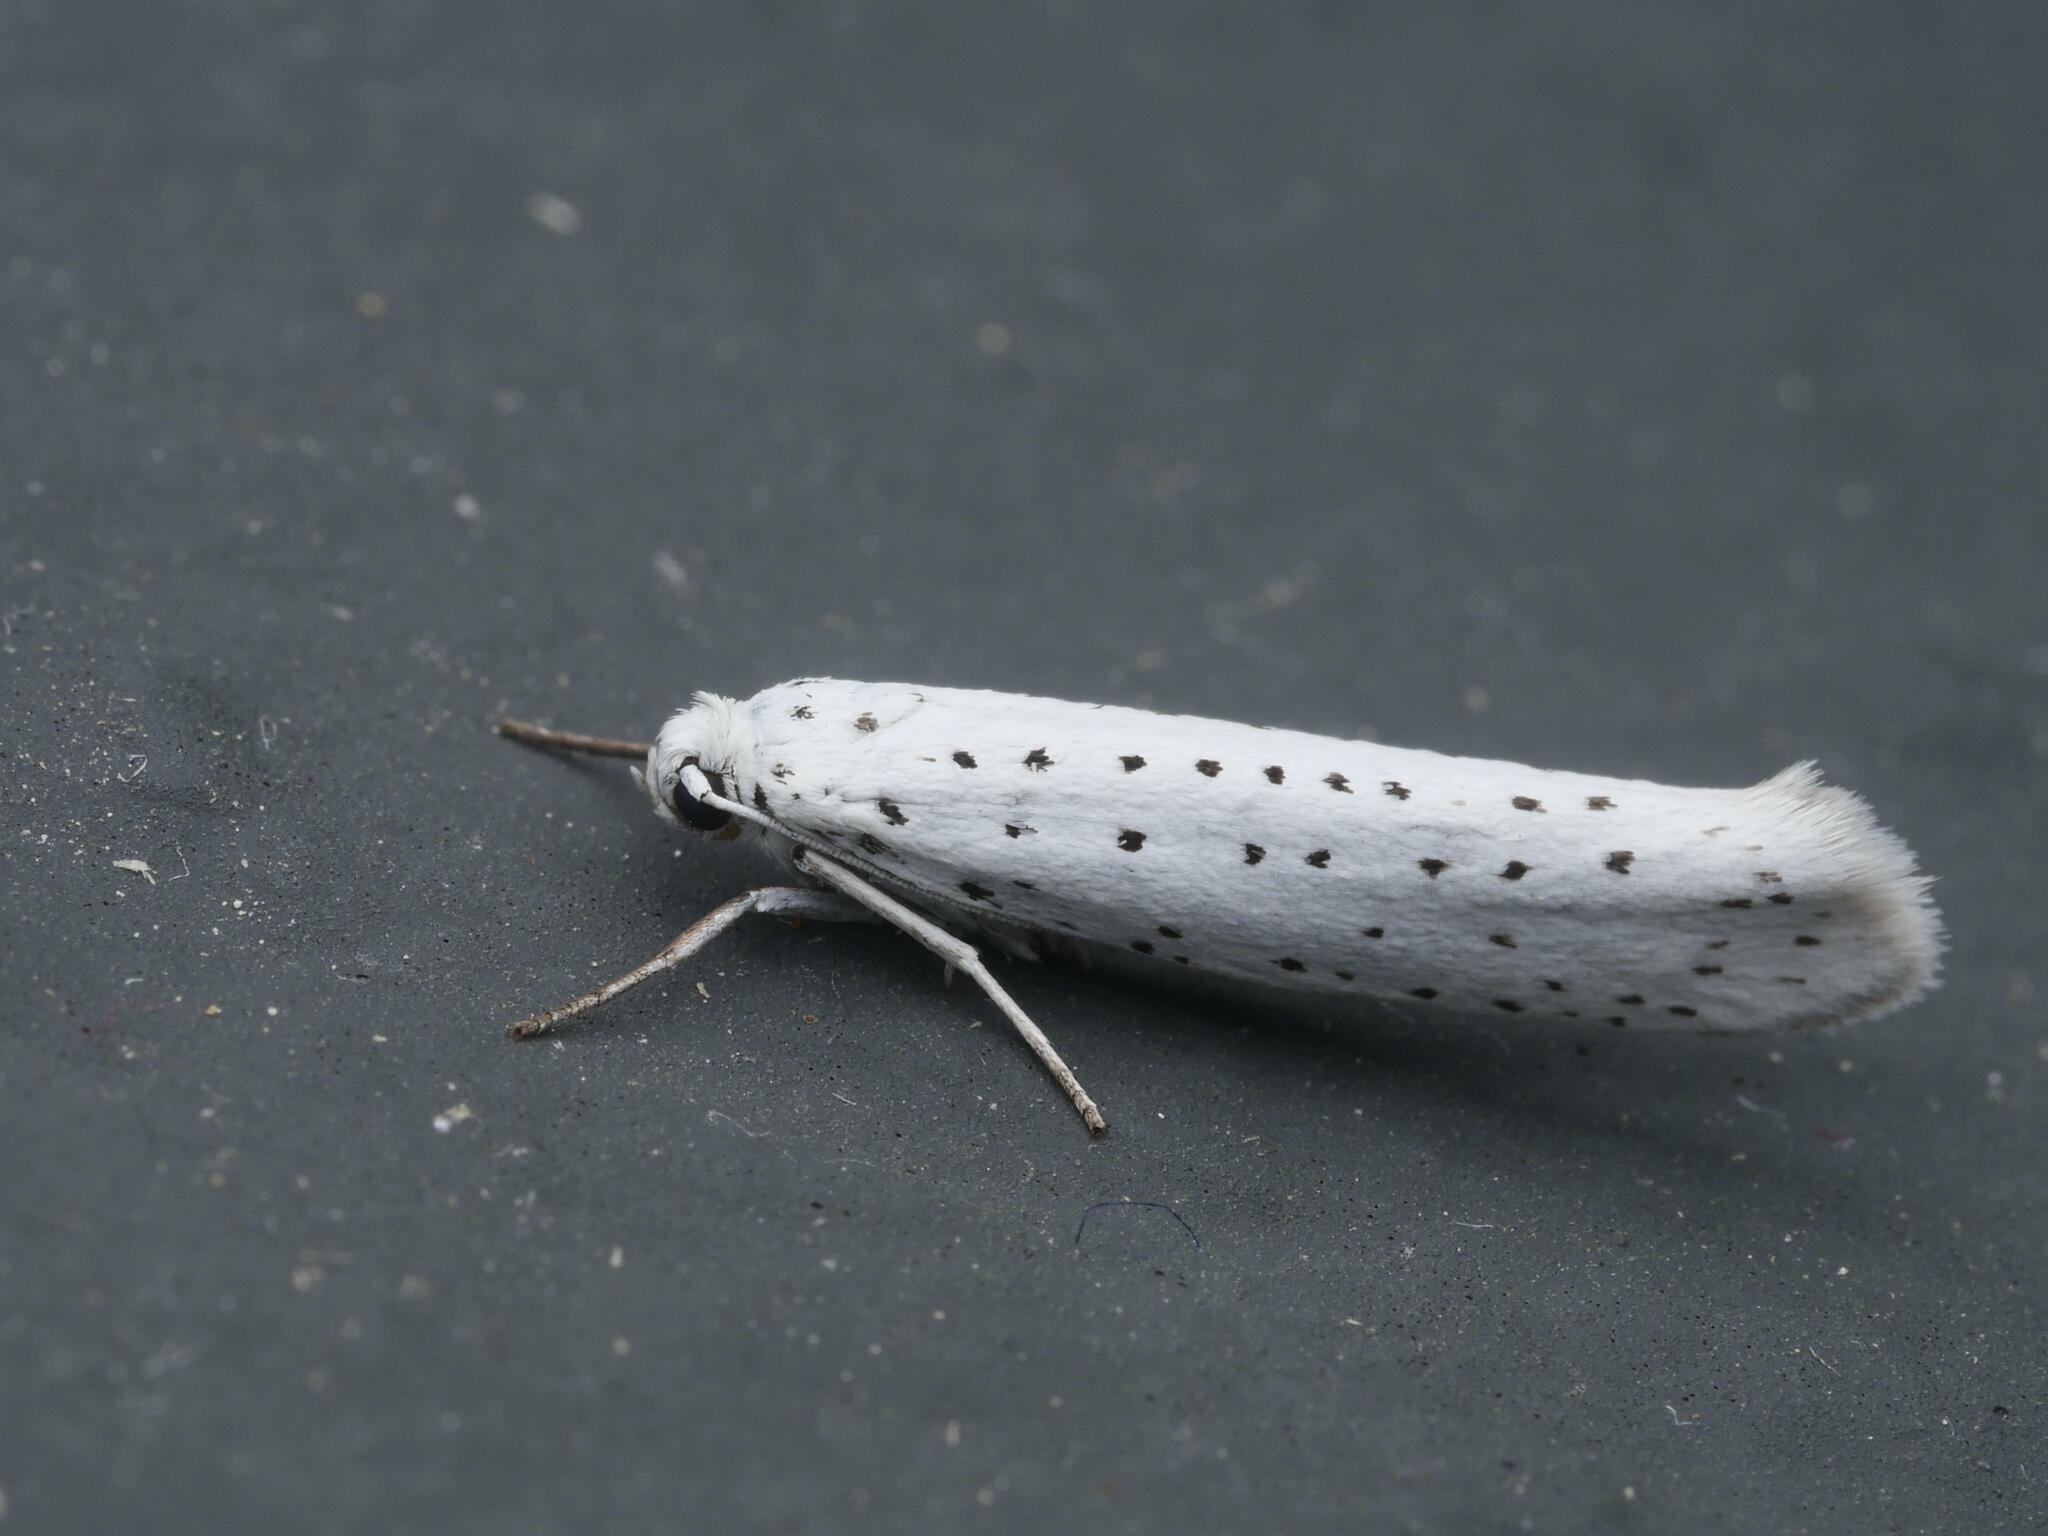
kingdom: Animalia
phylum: Arthropoda
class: Insecta
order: Lepidoptera
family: Yponomeutidae
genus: Yponomeuta
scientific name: Yponomeuta evonymella
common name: Bird-cherry ermine
